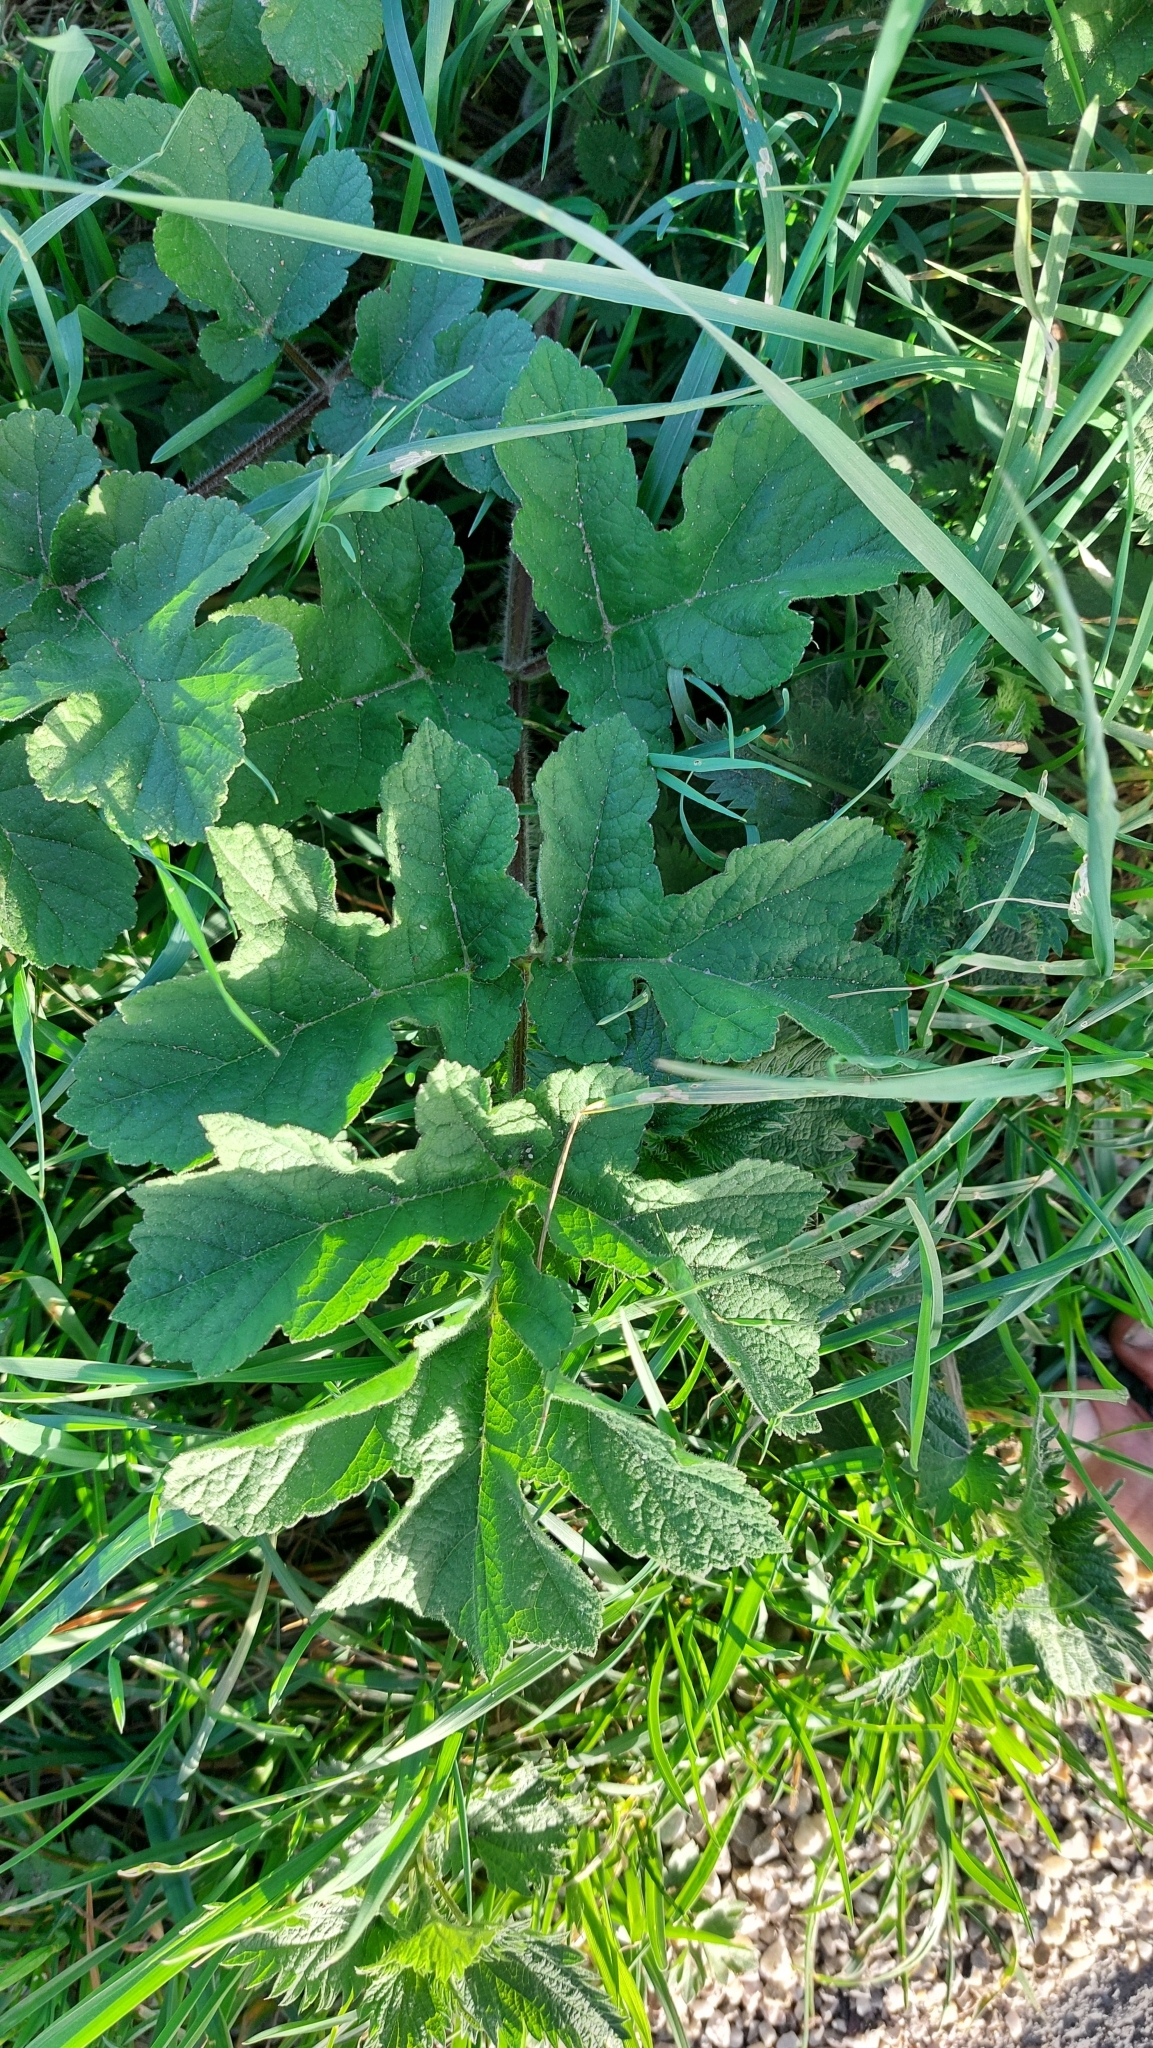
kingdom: Plantae
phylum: Tracheophyta
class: Magnoliopsida
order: Apiales
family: Apiaceae
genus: Heracleum
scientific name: Heracleum sphondylium
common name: Hogweed
